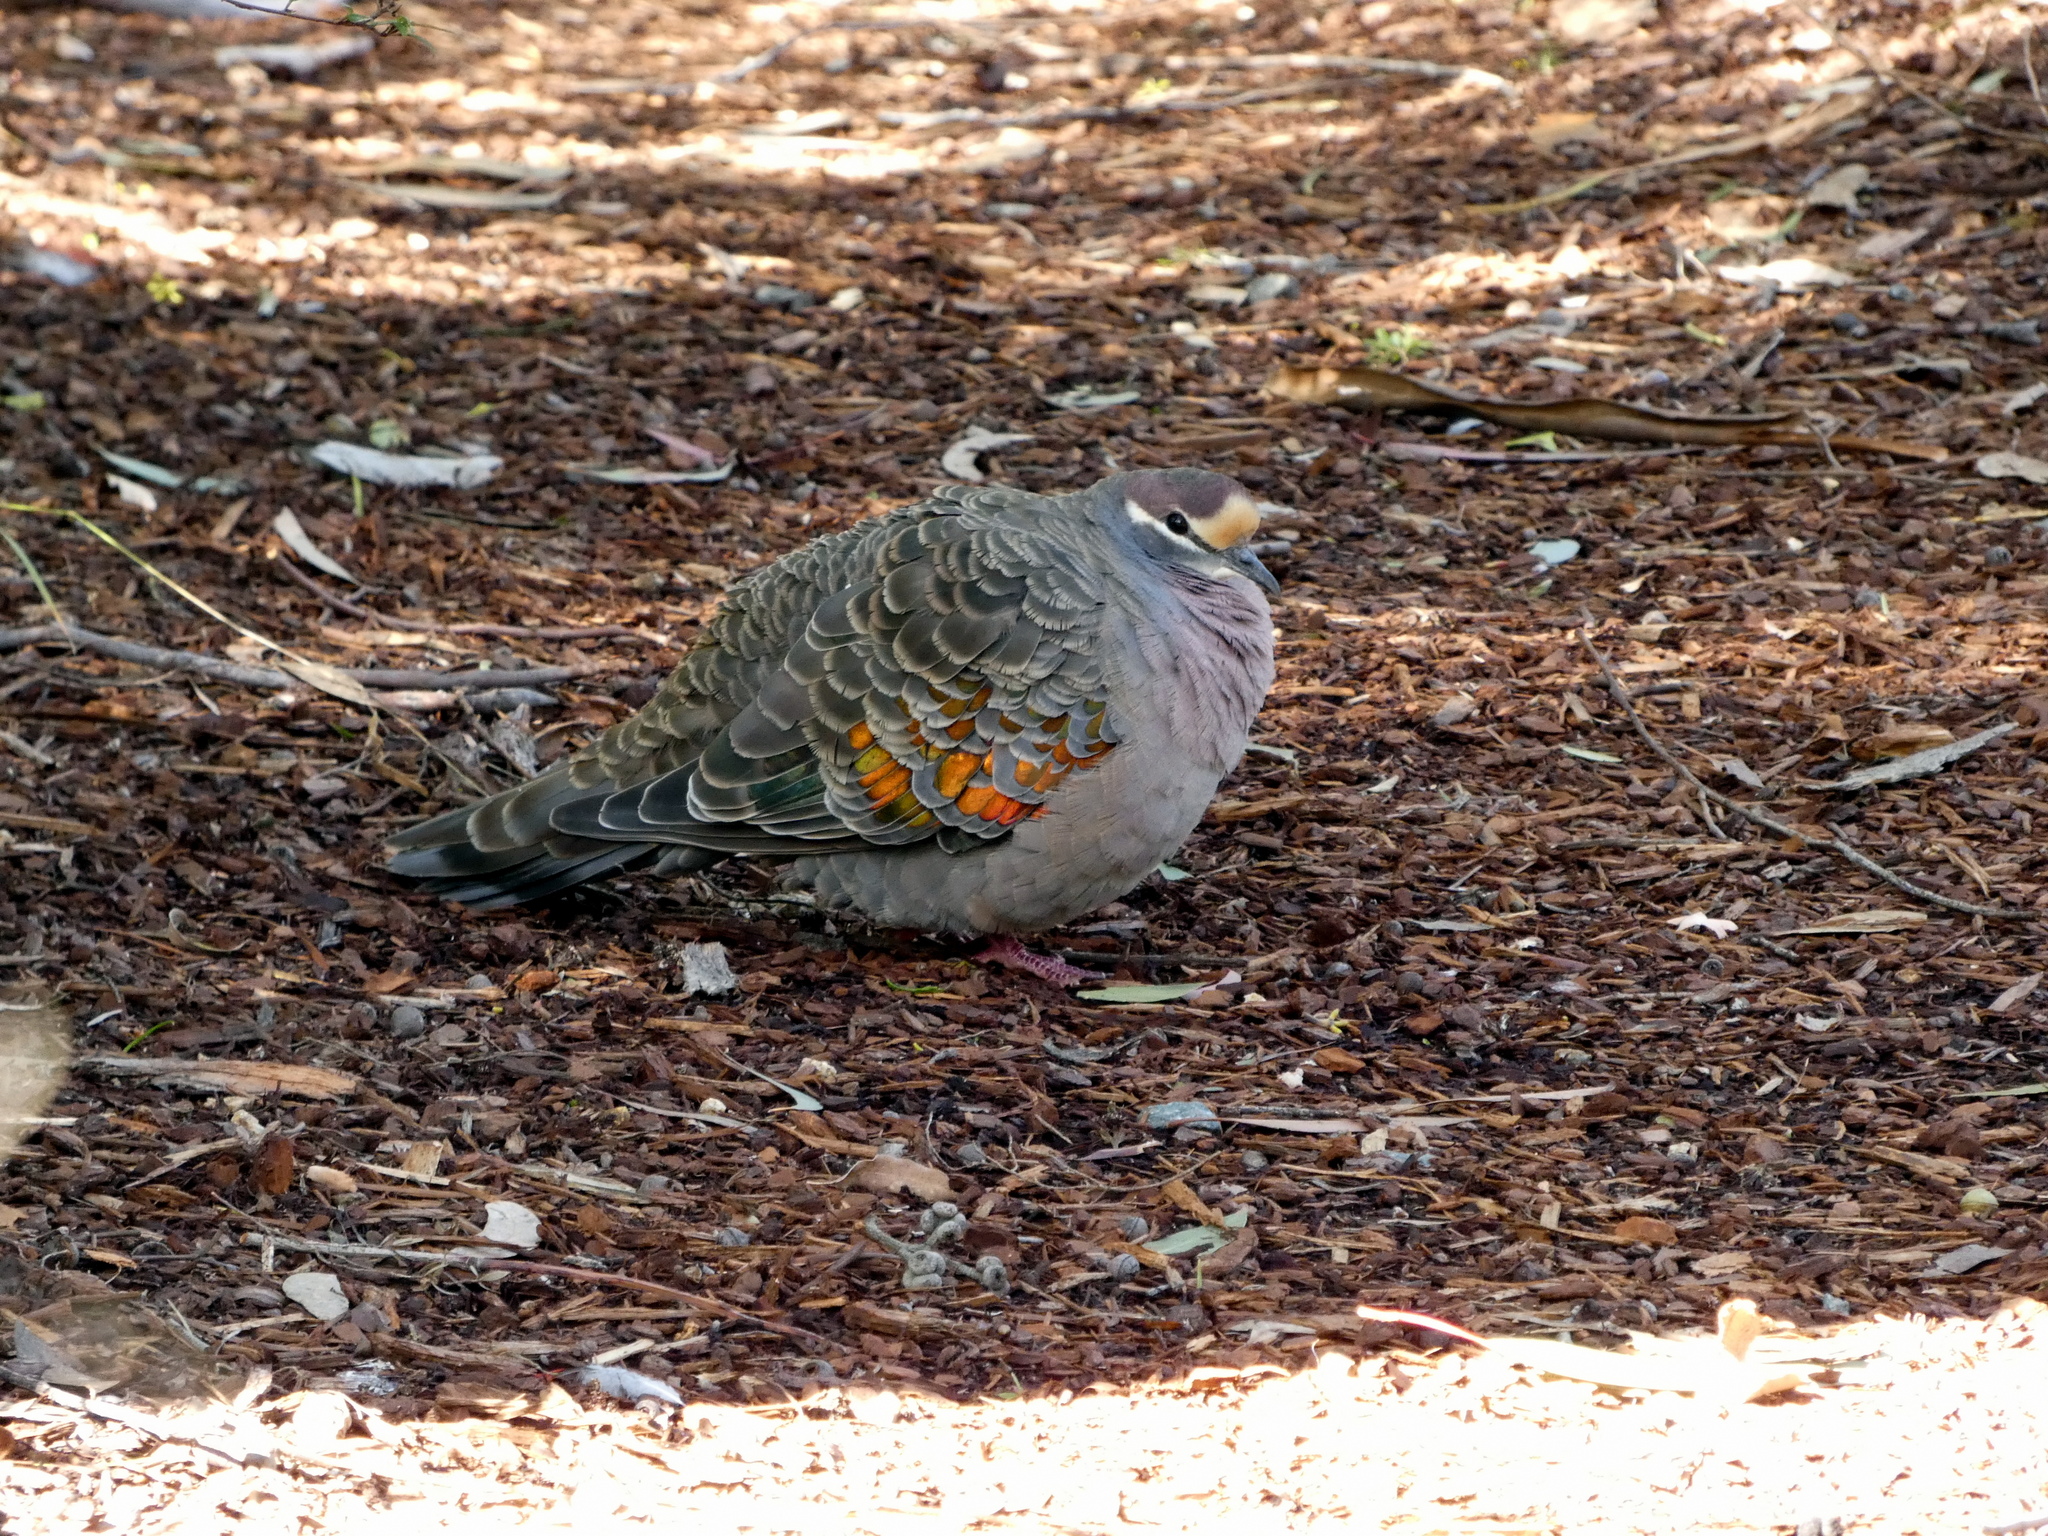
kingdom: Animalia
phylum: Chordata
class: Aves
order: Columbiformes
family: Columbidae
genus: Phaps
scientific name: Phaps chalcoptera
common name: Common bronzewing
